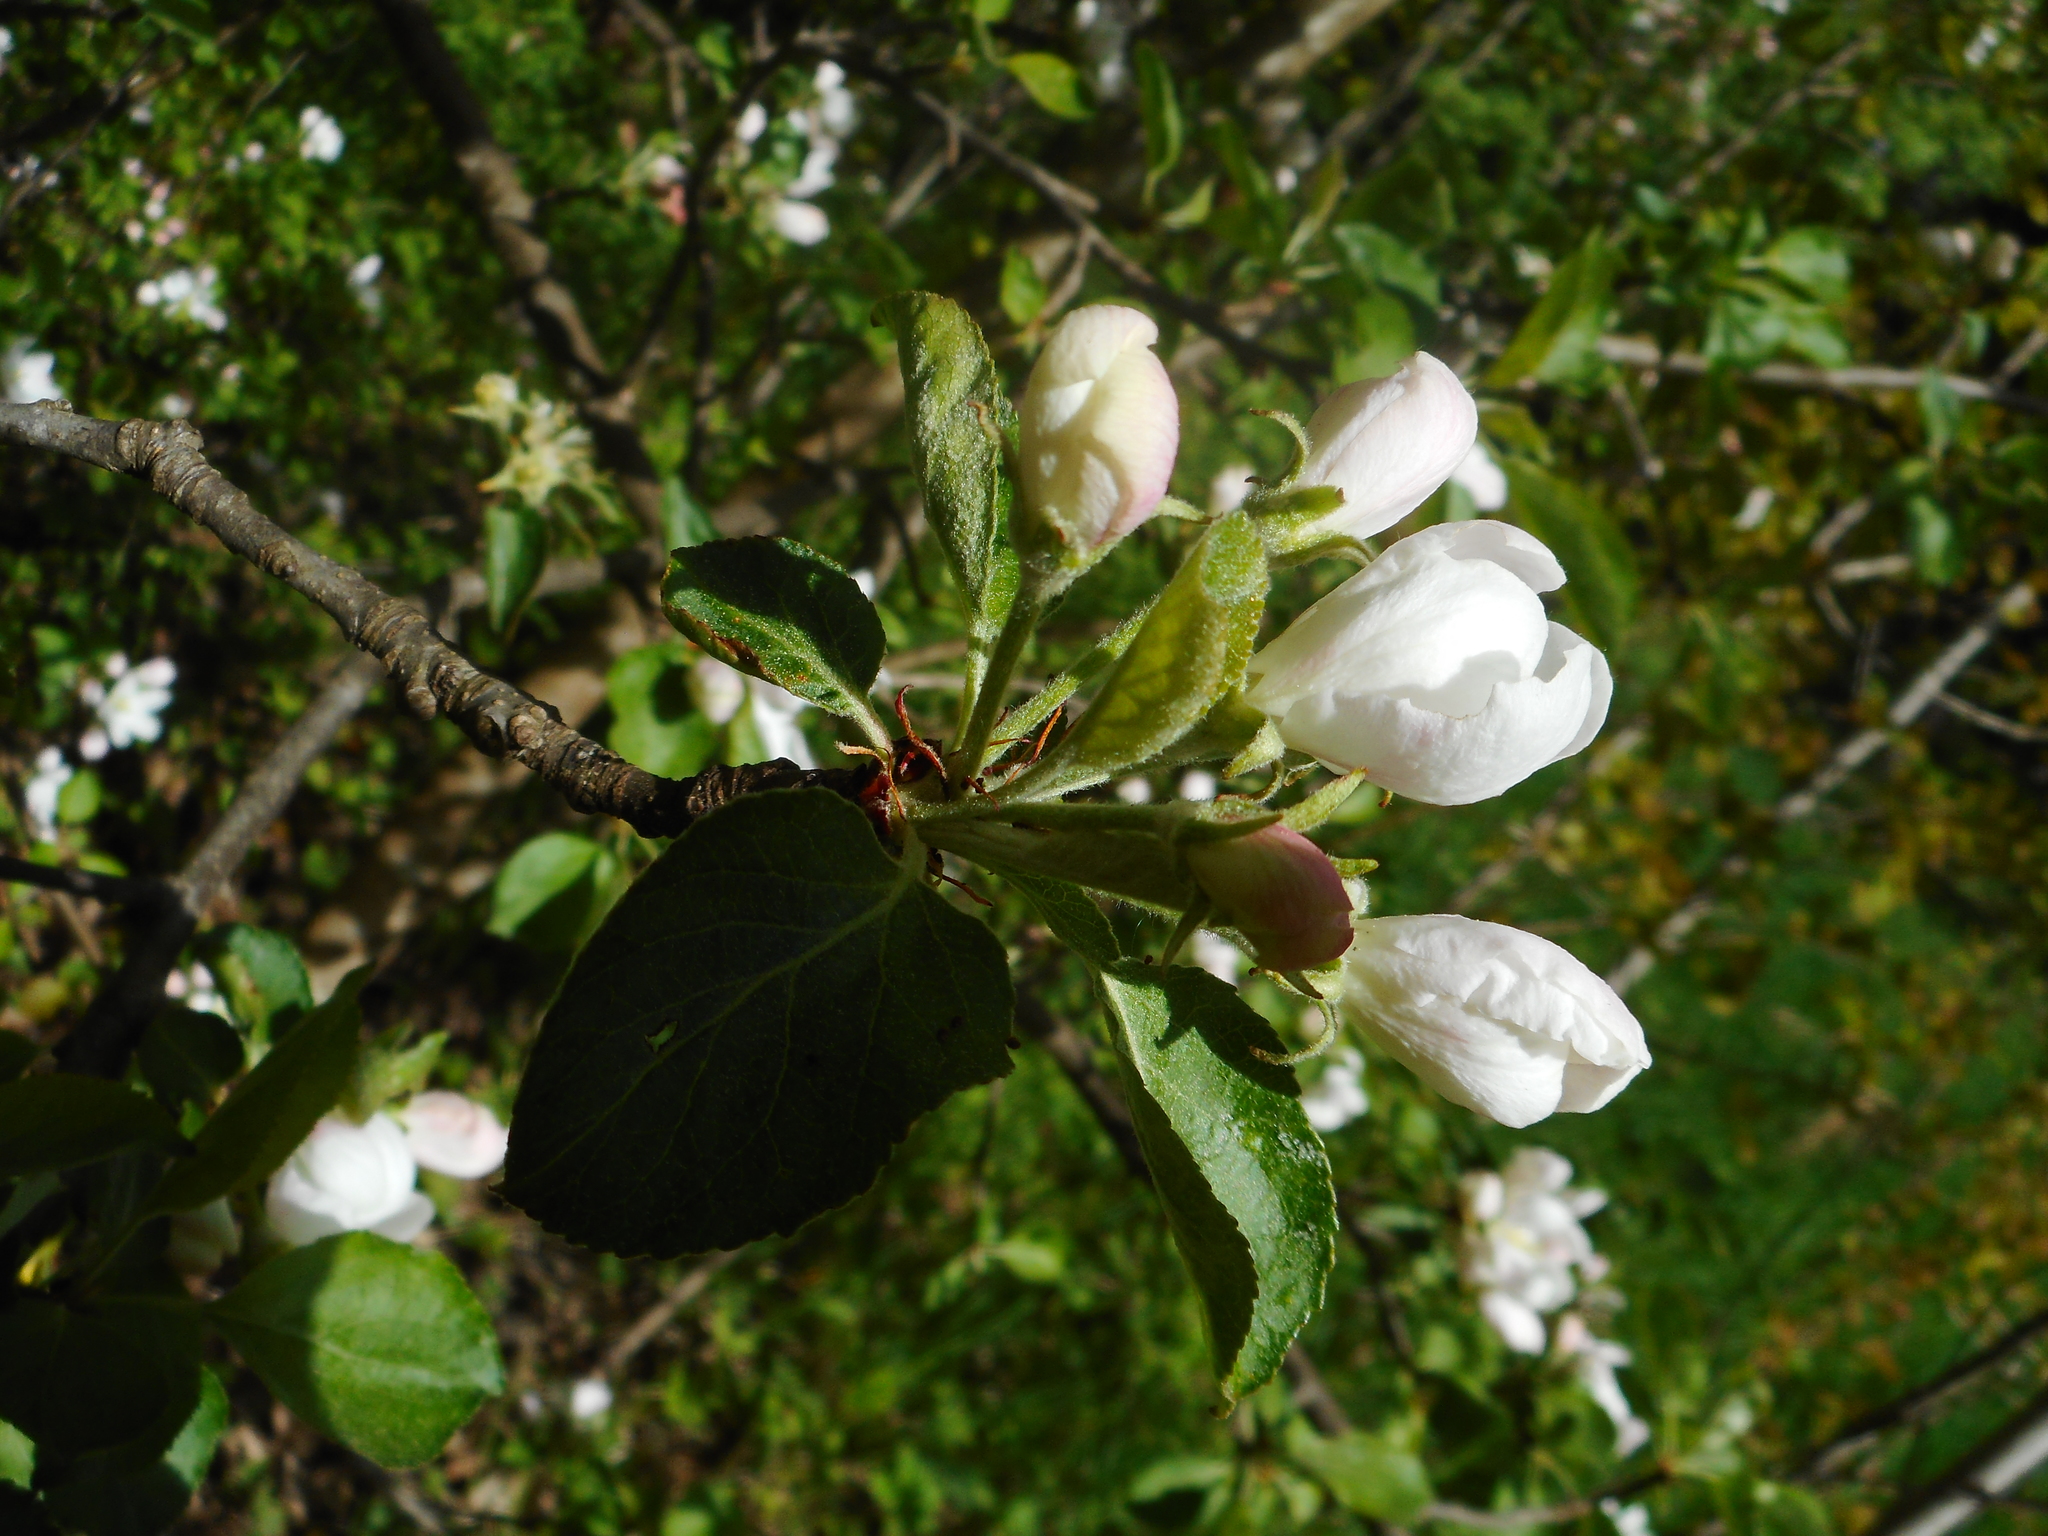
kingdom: Plantae
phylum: Tracheophyta
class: Magnoliopsida
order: Rosales
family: Rosaceae
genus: Malus
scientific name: Malus domestica
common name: Apple
